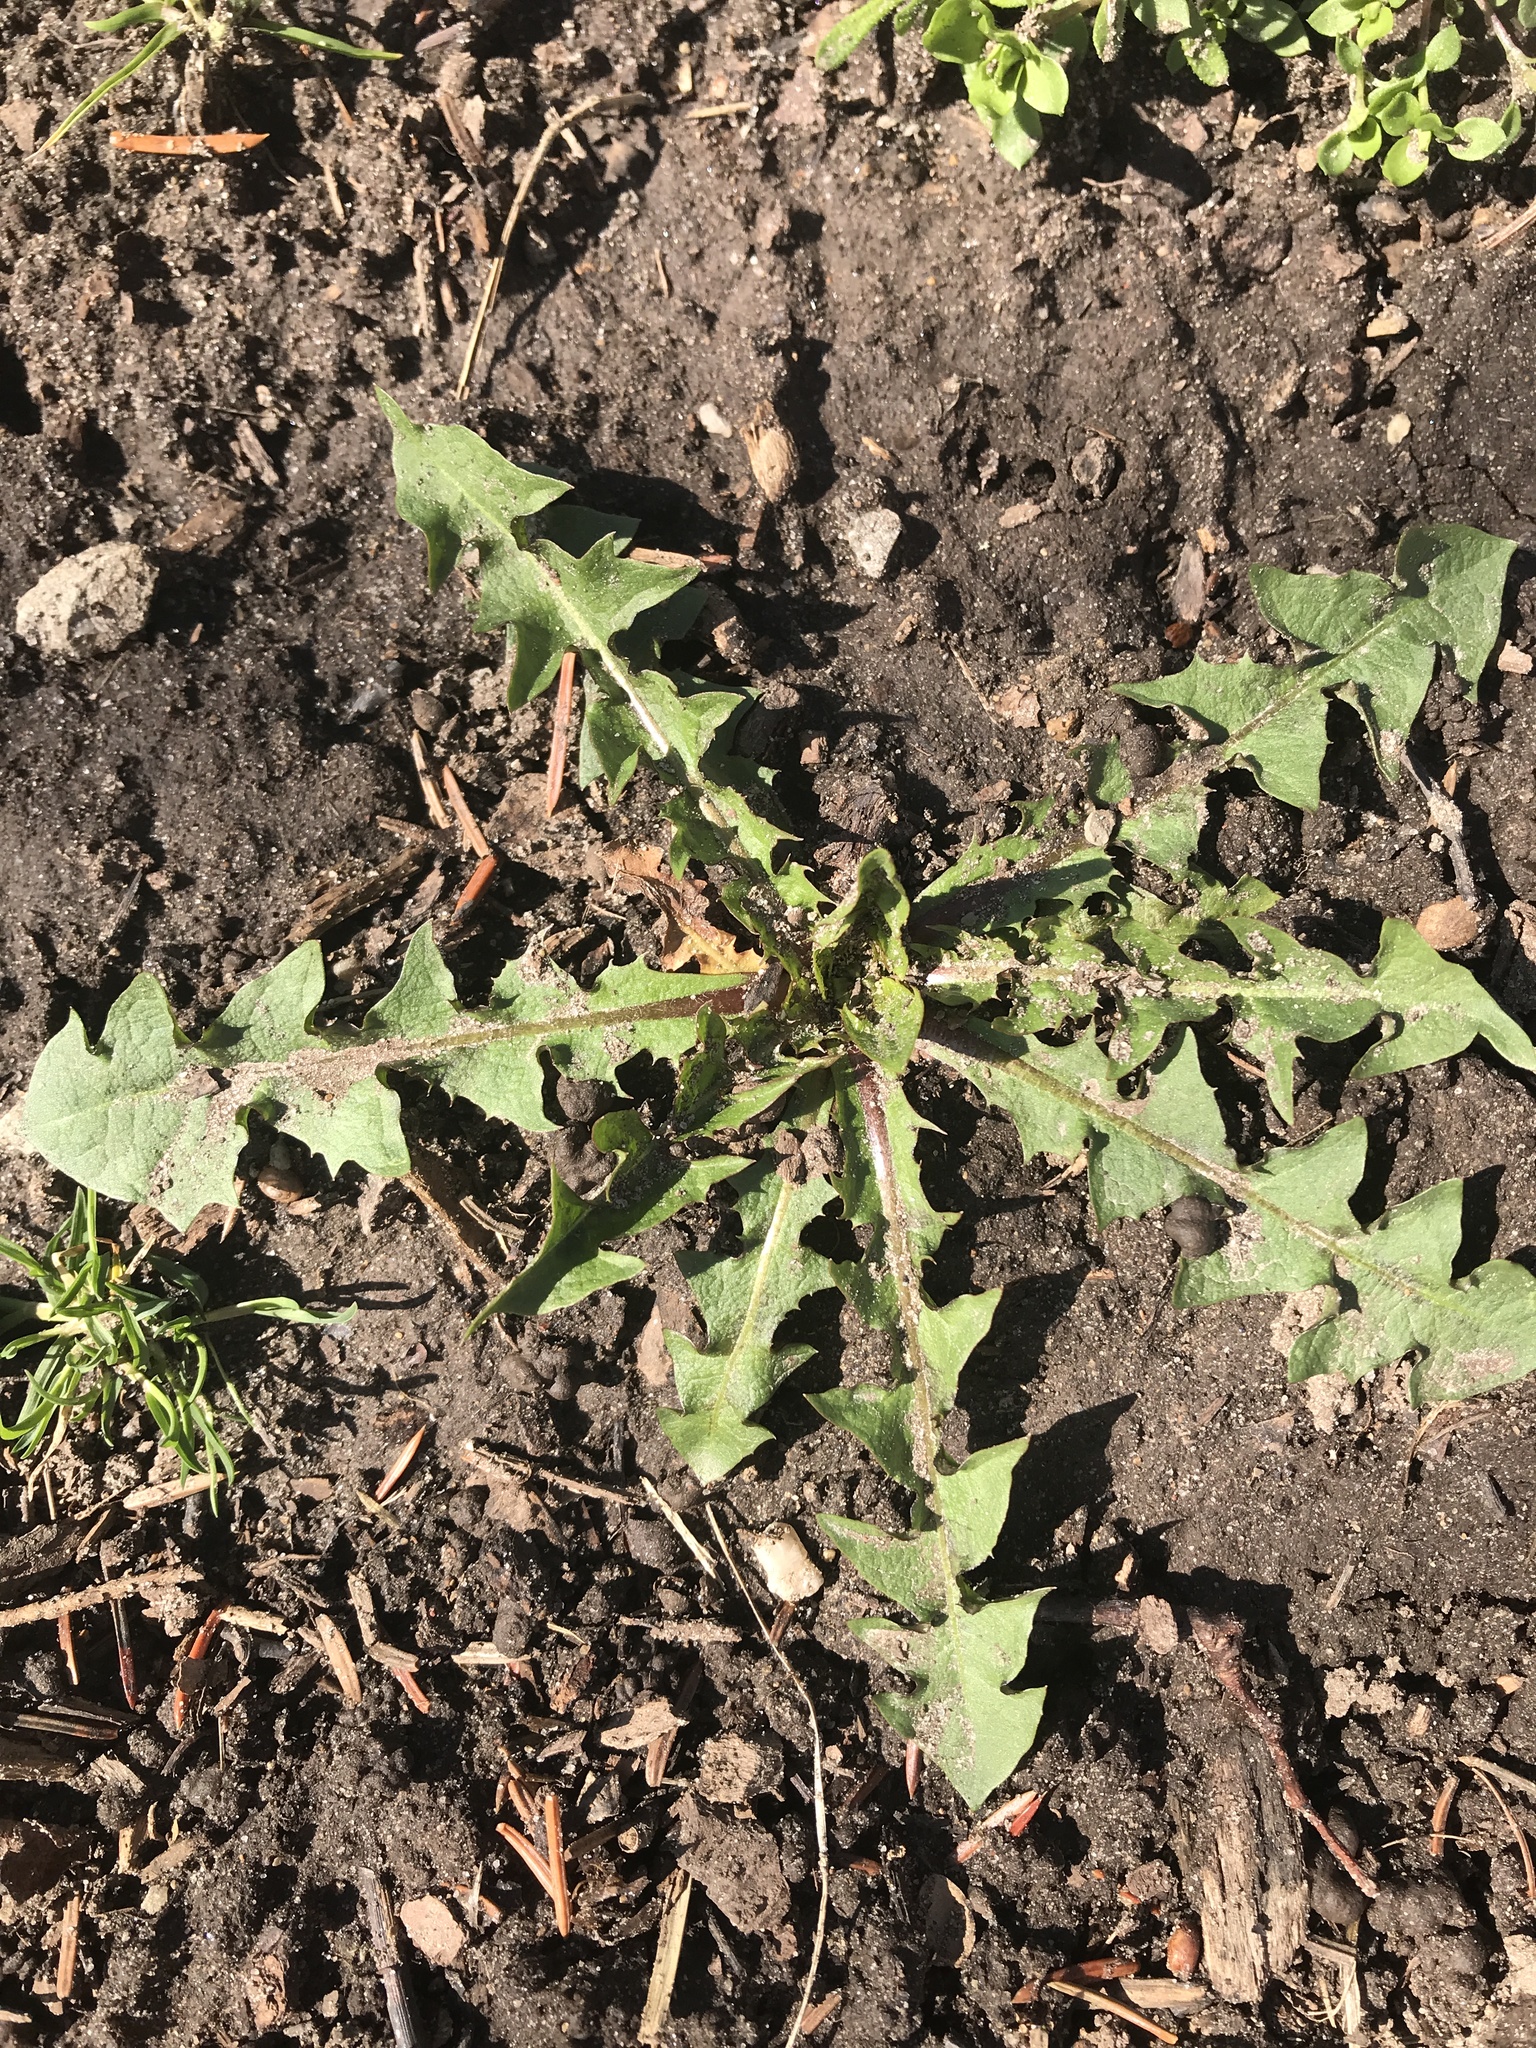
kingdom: Plantae
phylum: Tracheophyta
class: Magnoliopsida
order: Asterales
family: Asteraceae
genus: Taraxacum
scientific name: Taraxacum officinale
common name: Common dandelion
